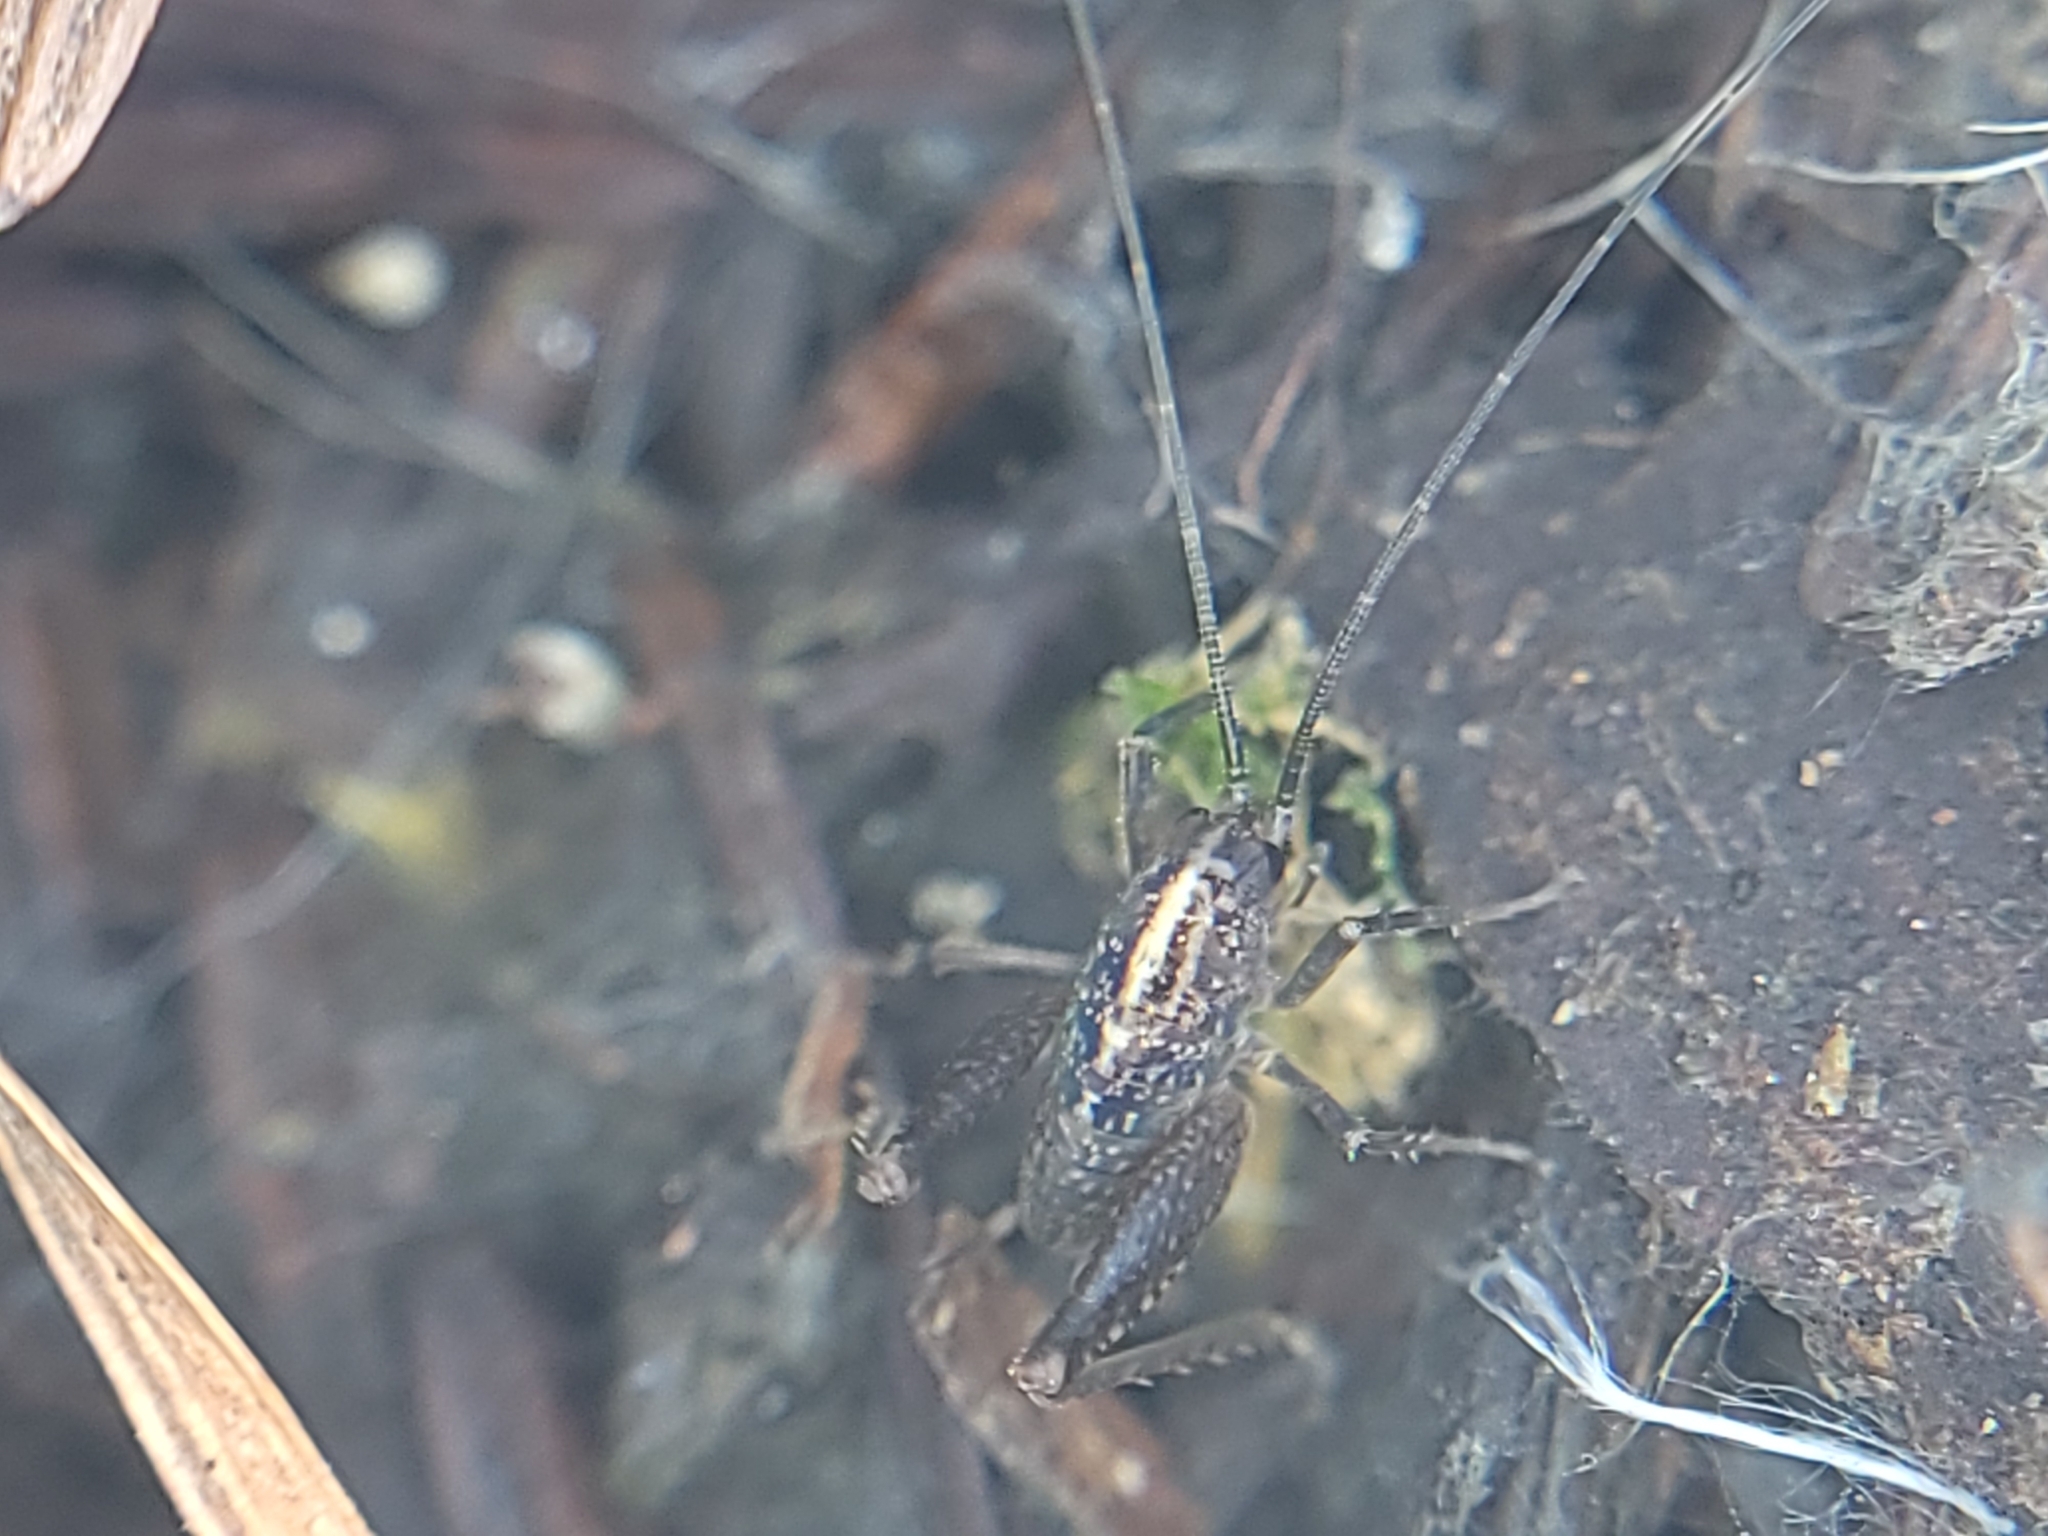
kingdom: Animalia
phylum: Arthropoda
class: Insecta
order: Orthoptera
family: Rhaphidophoridae
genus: Pristoceuthophilus
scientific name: Pristoceuthophilus
